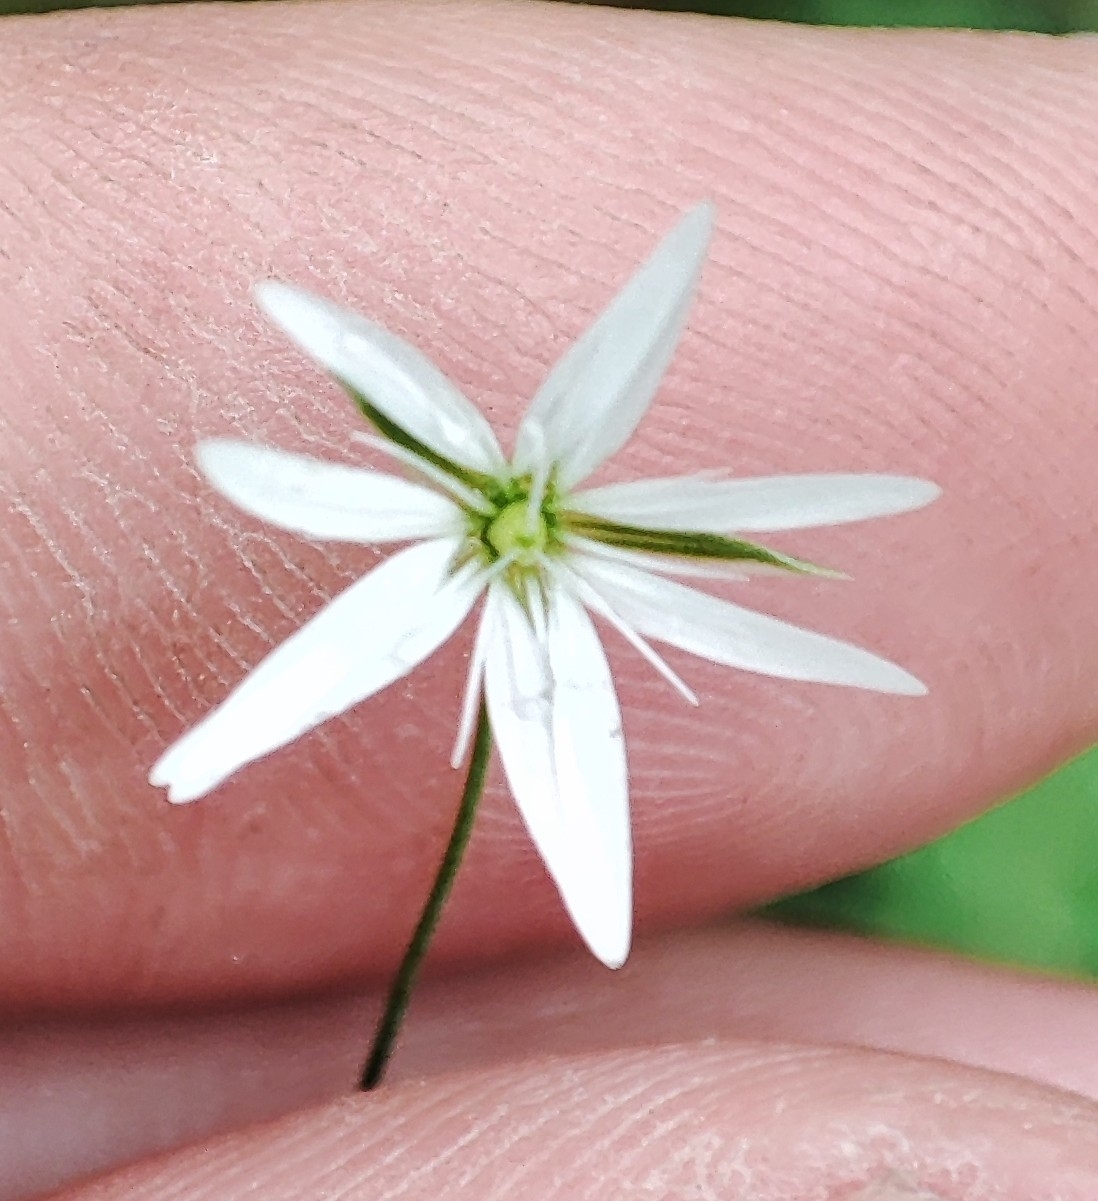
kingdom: Plantae
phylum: Tracheophyta
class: Magnoliopsida
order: Caryophyllales
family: Caryophyllaceae
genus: Stellaria
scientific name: Stellaria graminea
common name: Grass-like starwort
